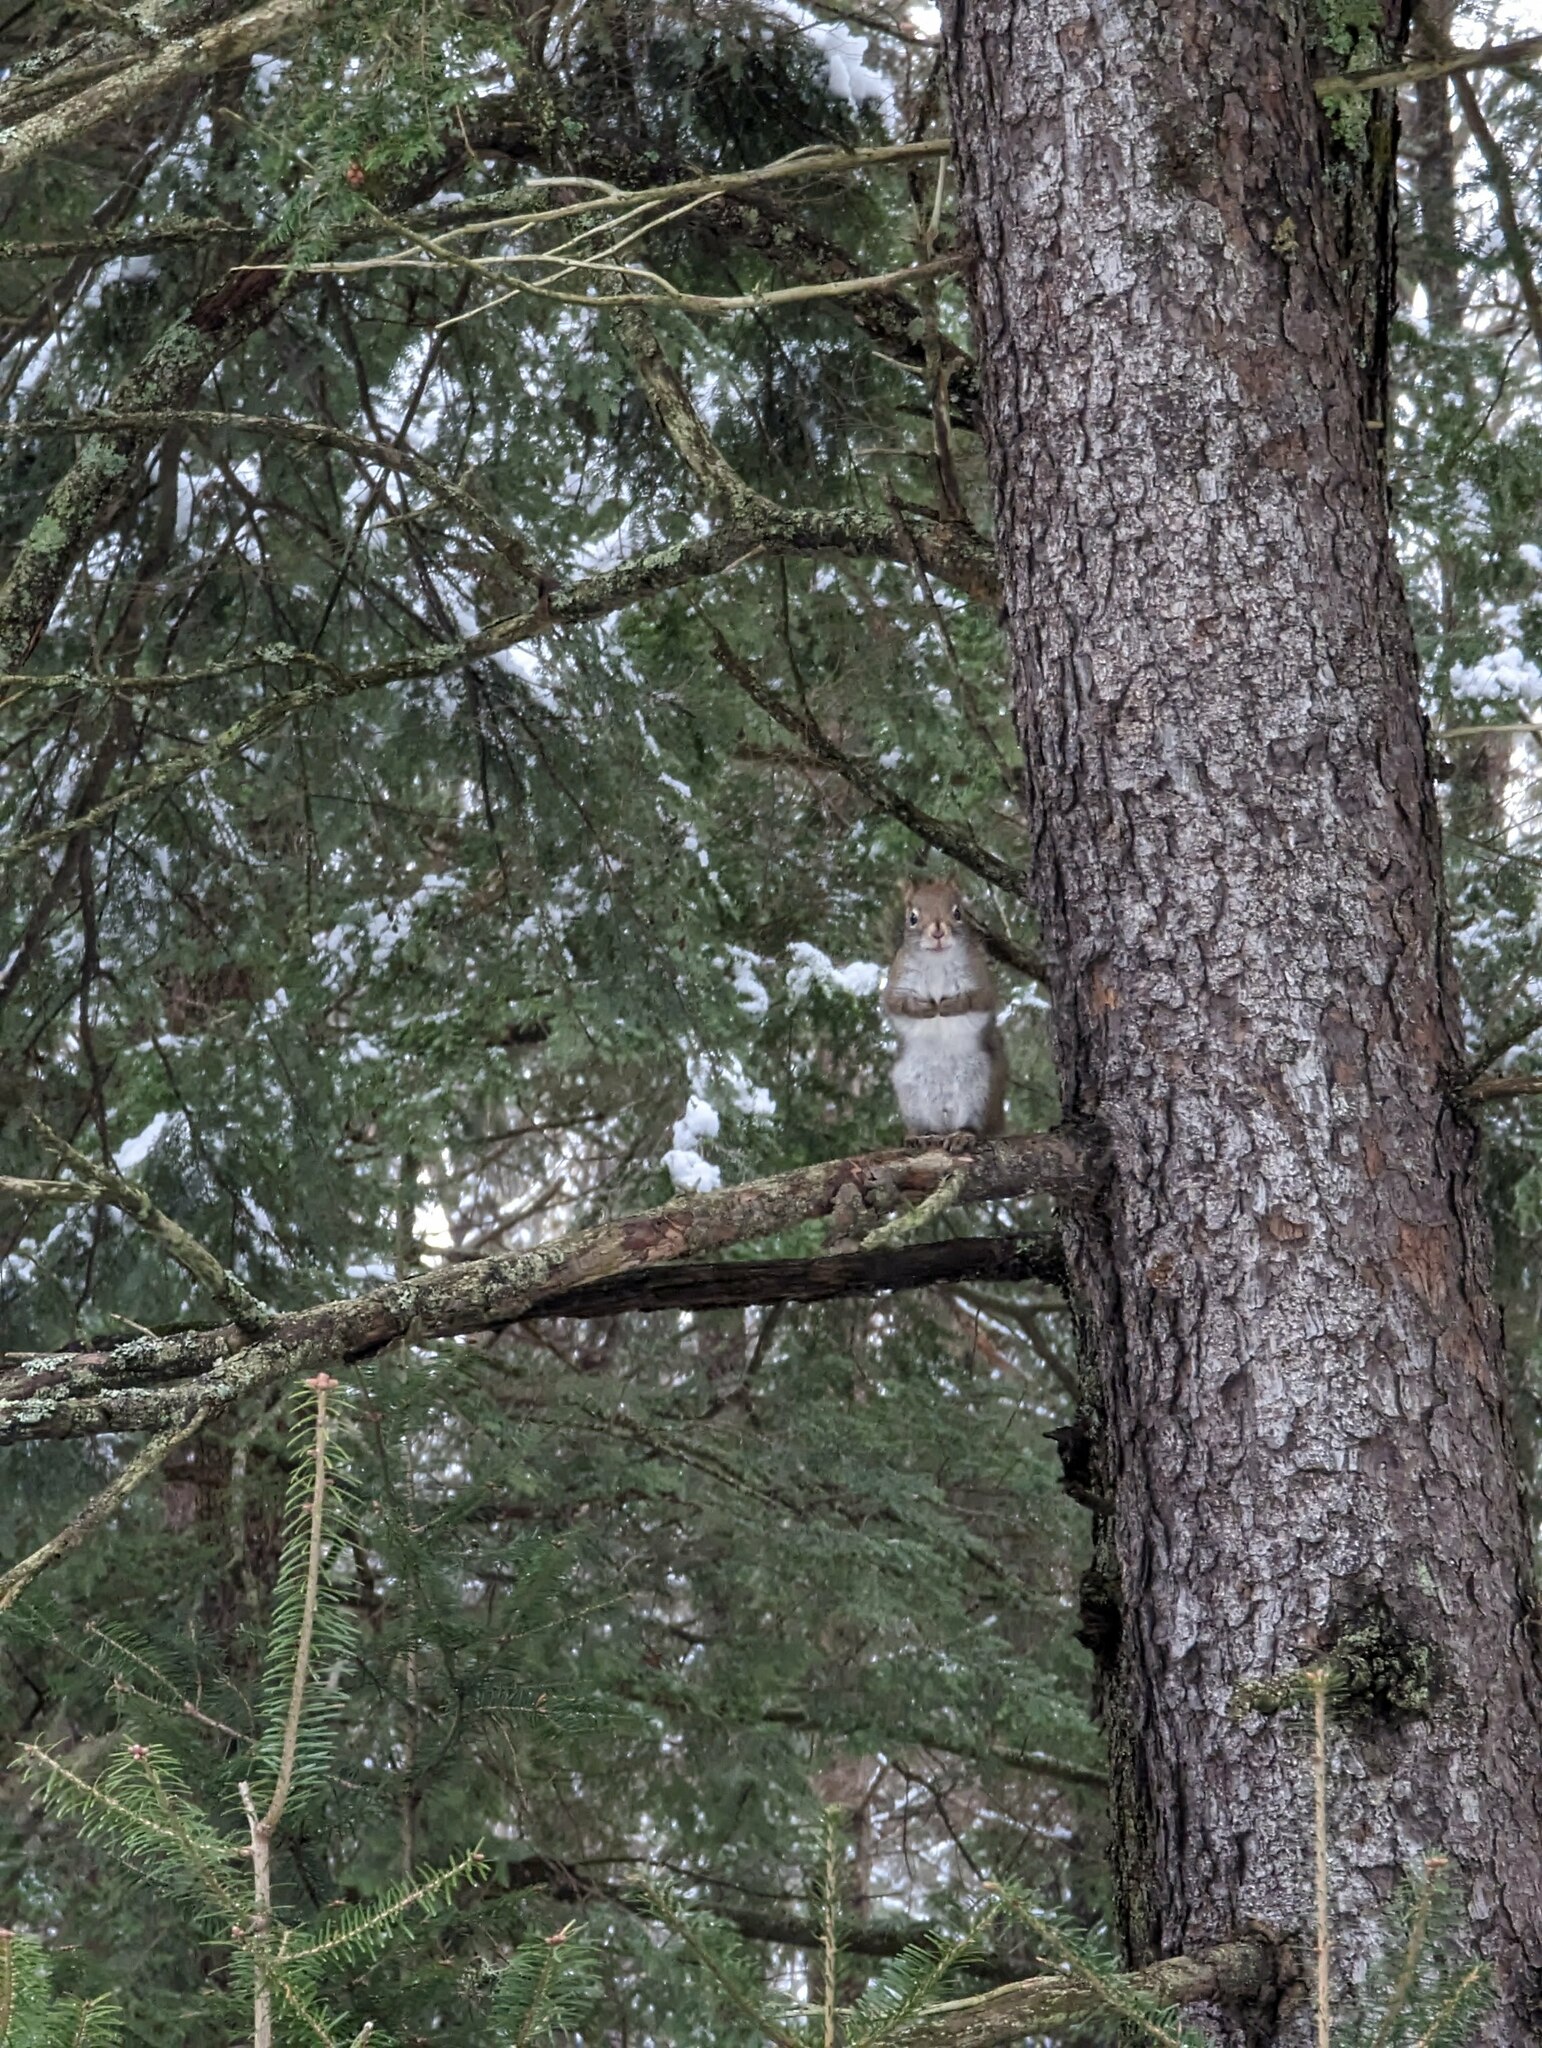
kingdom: Animalia
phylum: Chordata
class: Mammalia
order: Rodentia
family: Sciuridae
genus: Tamiasciurus
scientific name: Tamiasciurus hudsonicus
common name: Red squirrel
